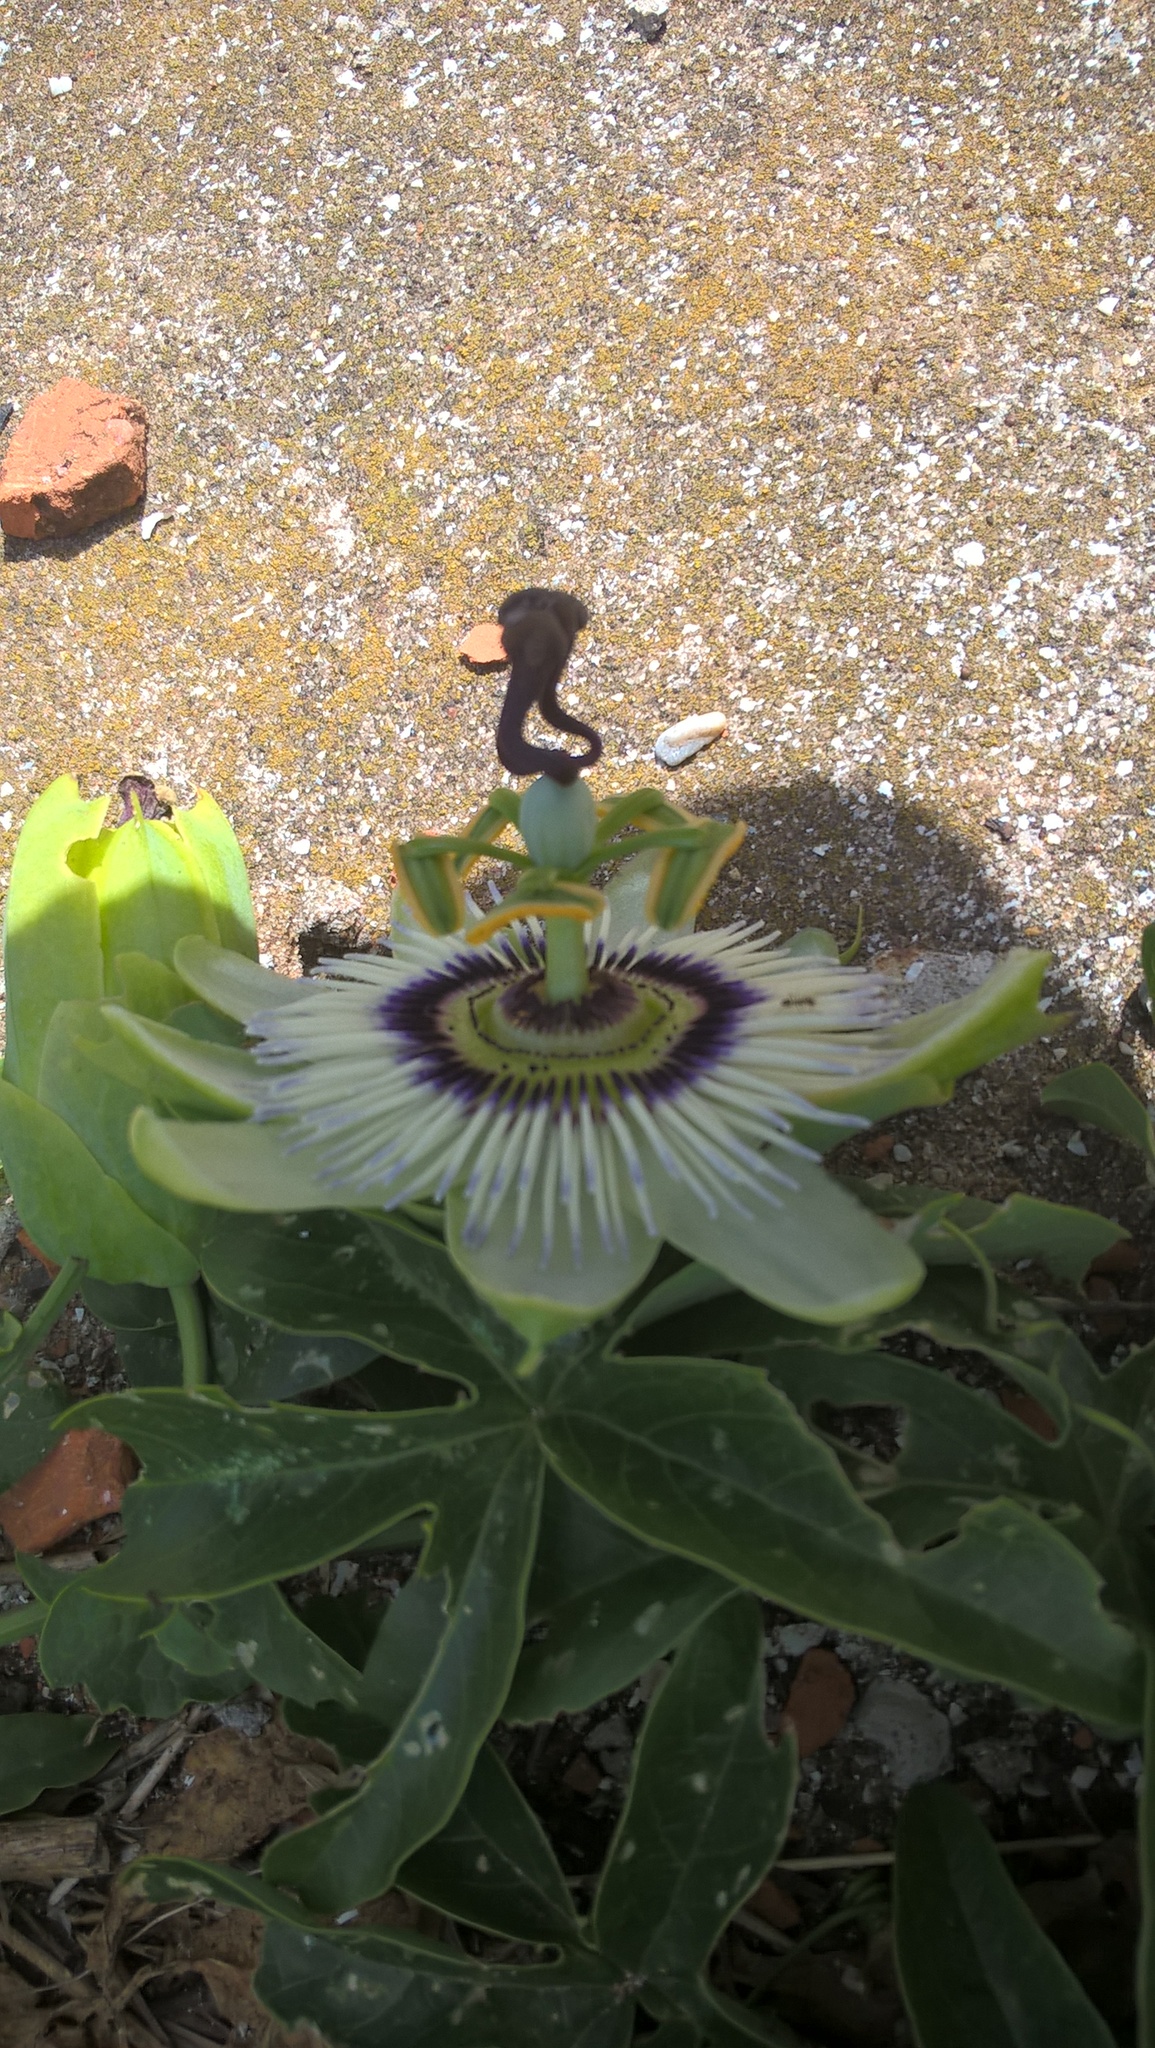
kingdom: Plantae
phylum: Tracheophyta
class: Magnoliopsida
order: Malpighiales
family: Passifloraceae
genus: Passiflora
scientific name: Passiflora caerulea
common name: Blue passionflower
